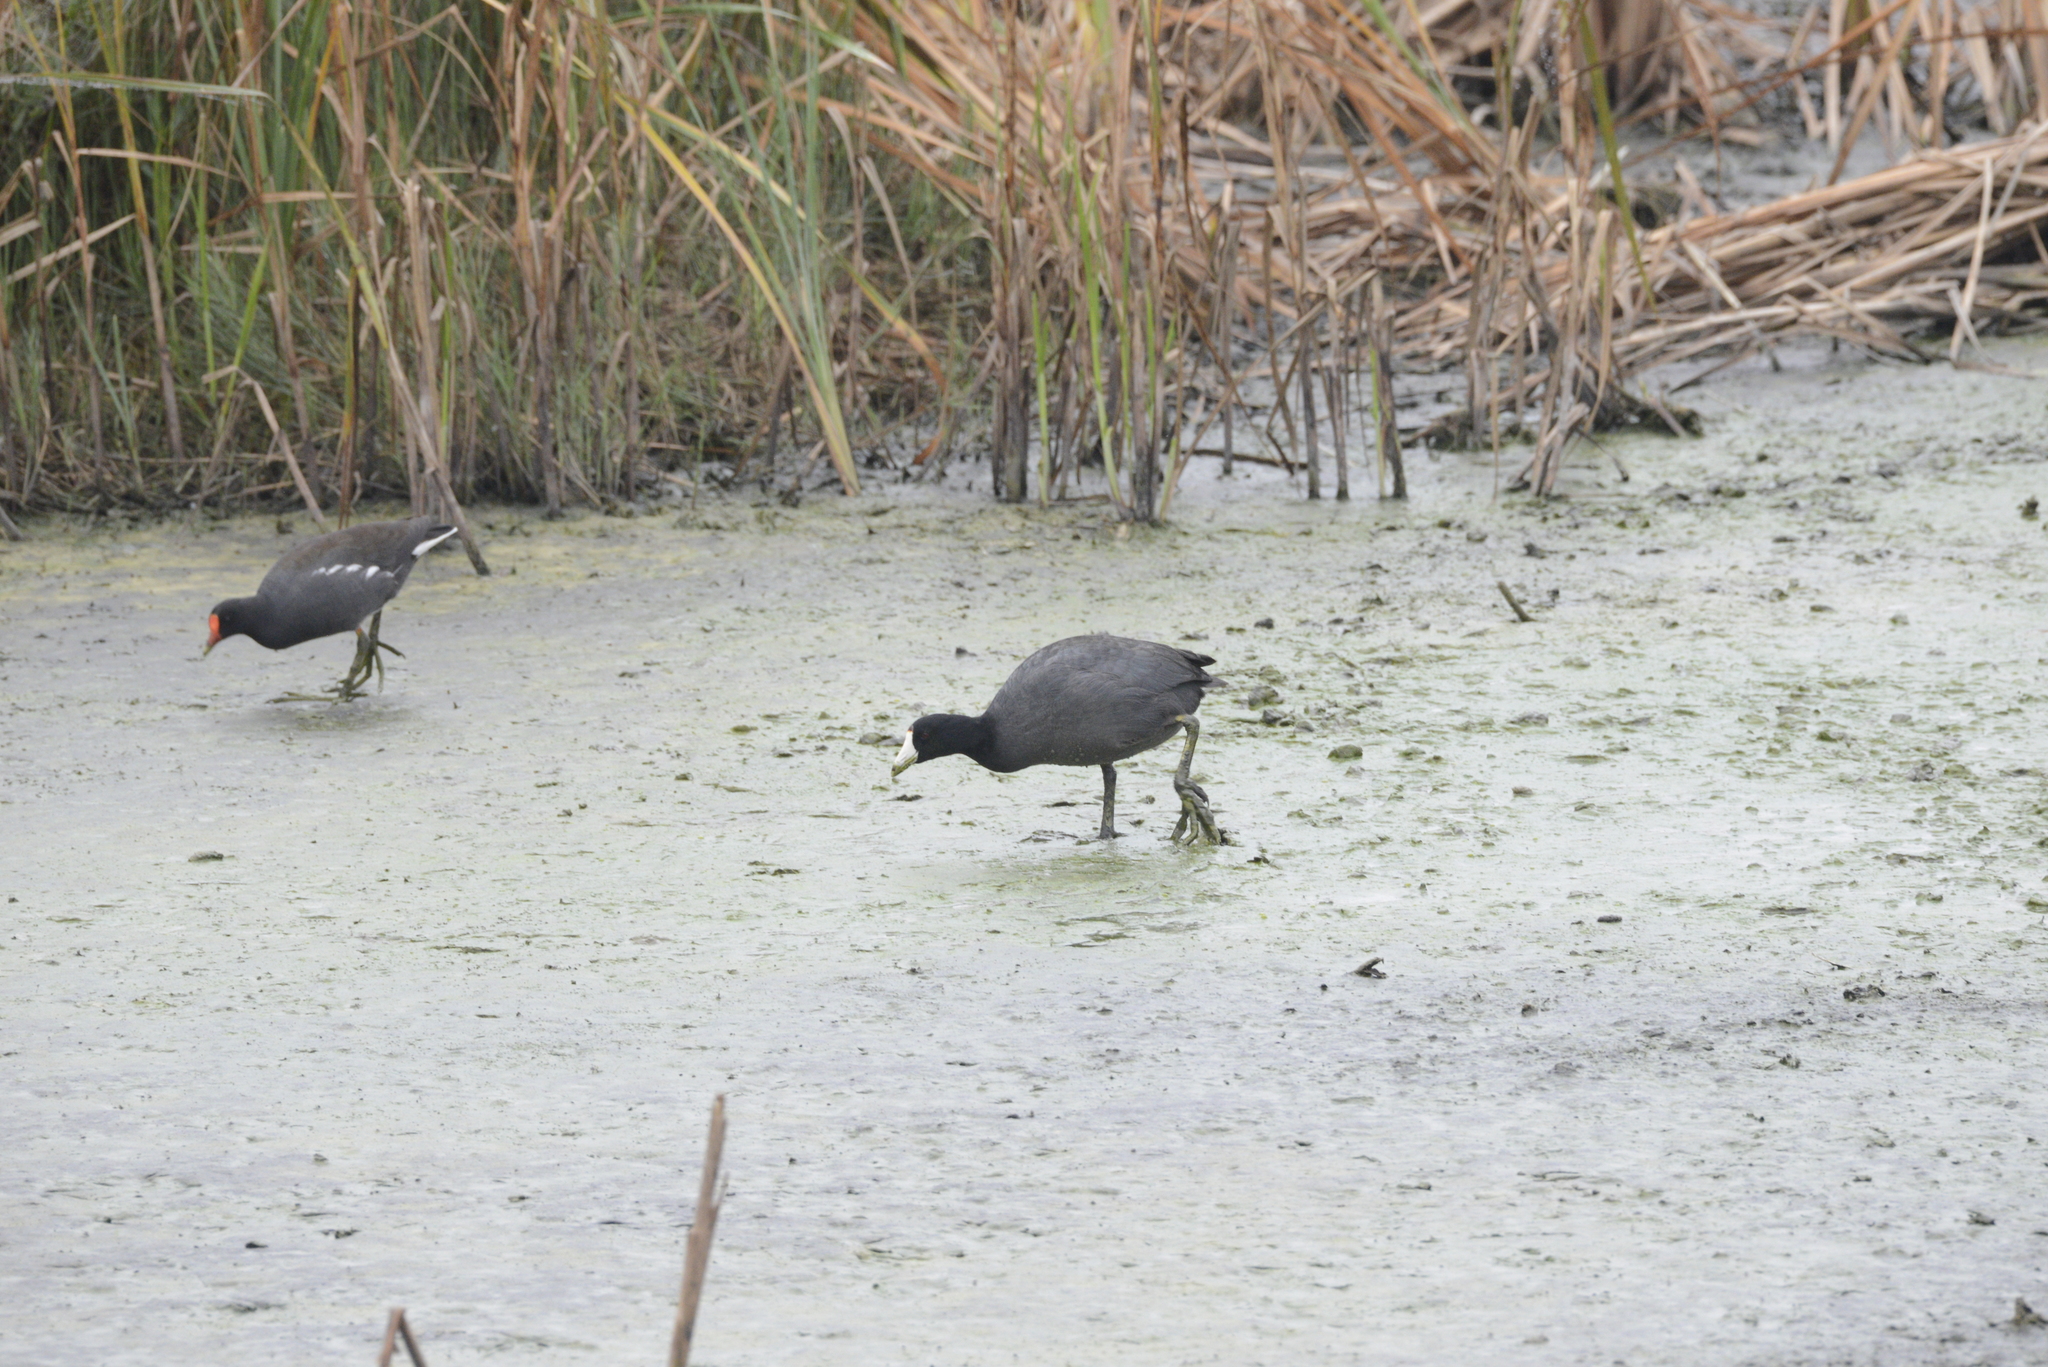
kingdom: Animalia
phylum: Chordata
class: Aves
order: Gruiformes
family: Rallidae
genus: Fulica
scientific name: Fulica americana
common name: American coot
